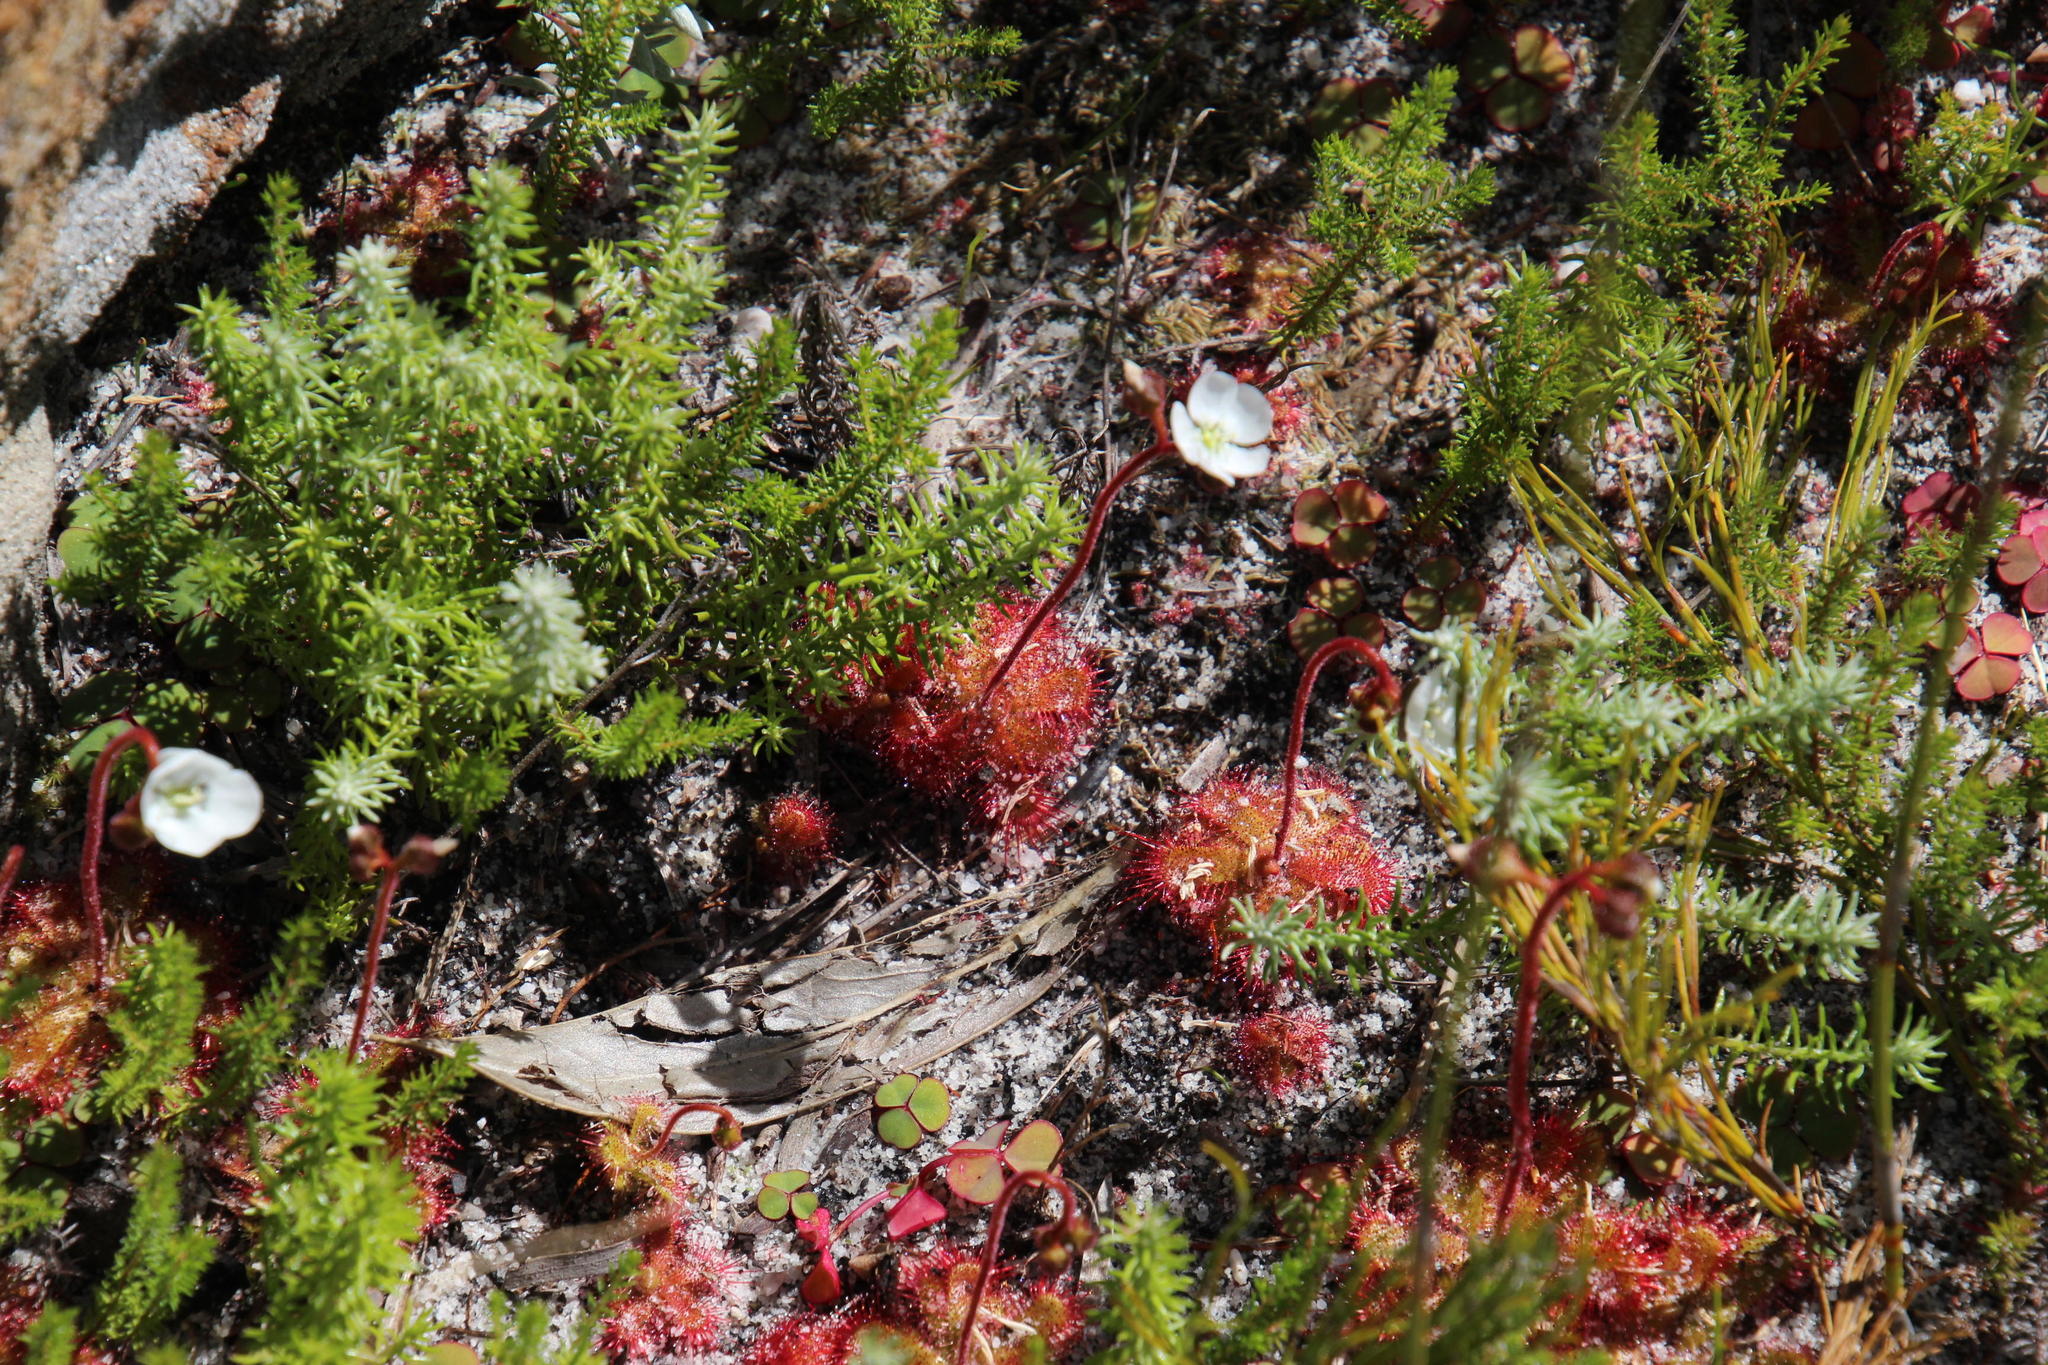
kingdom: Plantae
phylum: Tracheophyta
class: Magnoliopsida
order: Caryophyllales
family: Droseraceae
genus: Drosera
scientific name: Drosera trinervia
